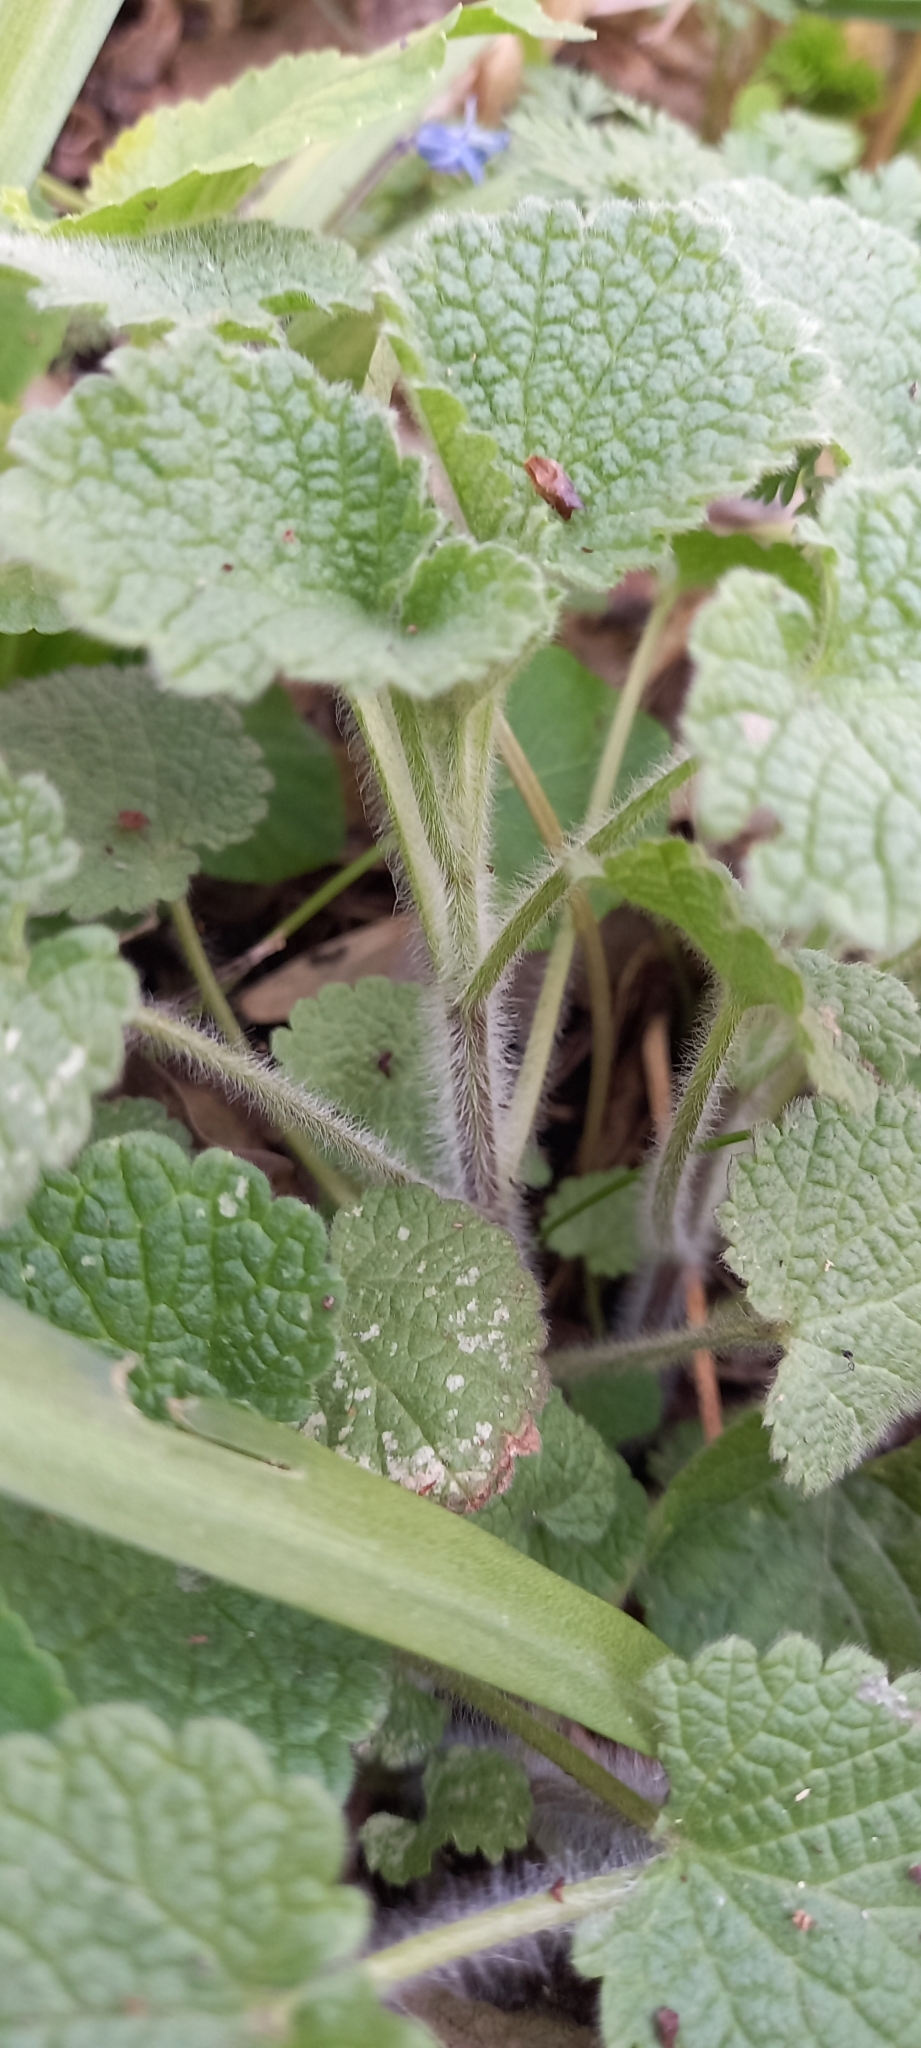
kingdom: Plantae
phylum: Tracheophyta
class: Magnoliopsida
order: Lamiales
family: Lamiaceae
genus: Ballota
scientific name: Ballota nigra
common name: Black horehound
